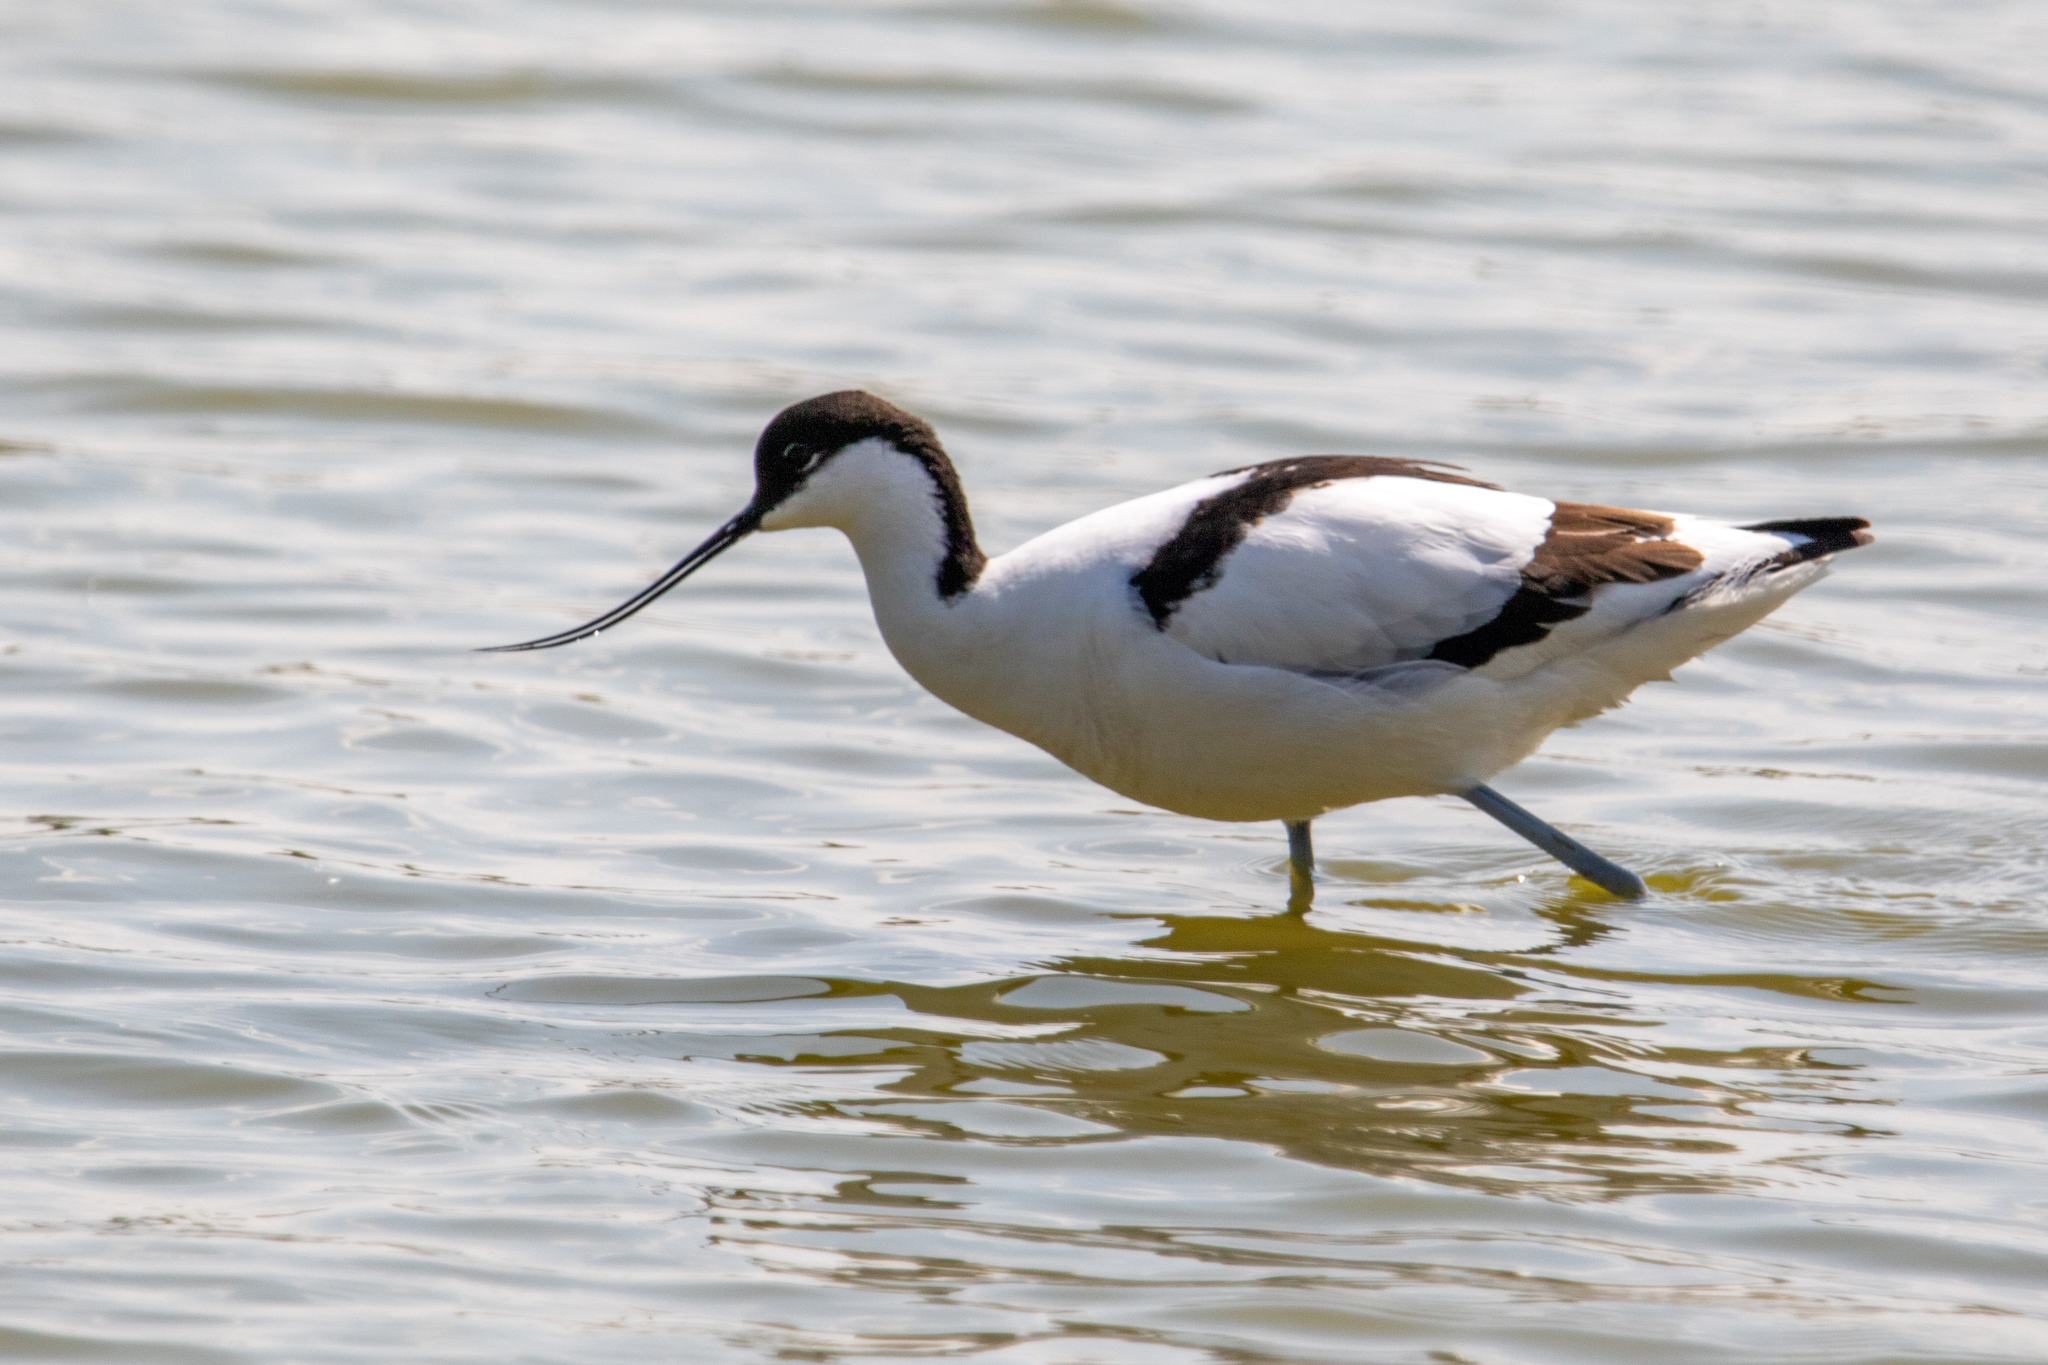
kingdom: Animalia
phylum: Chordata
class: Aves
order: Charadriiformes
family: Recurvirostridae
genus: Recurvirostra
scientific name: Recurvirostra avosetta
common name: Pied avocet
